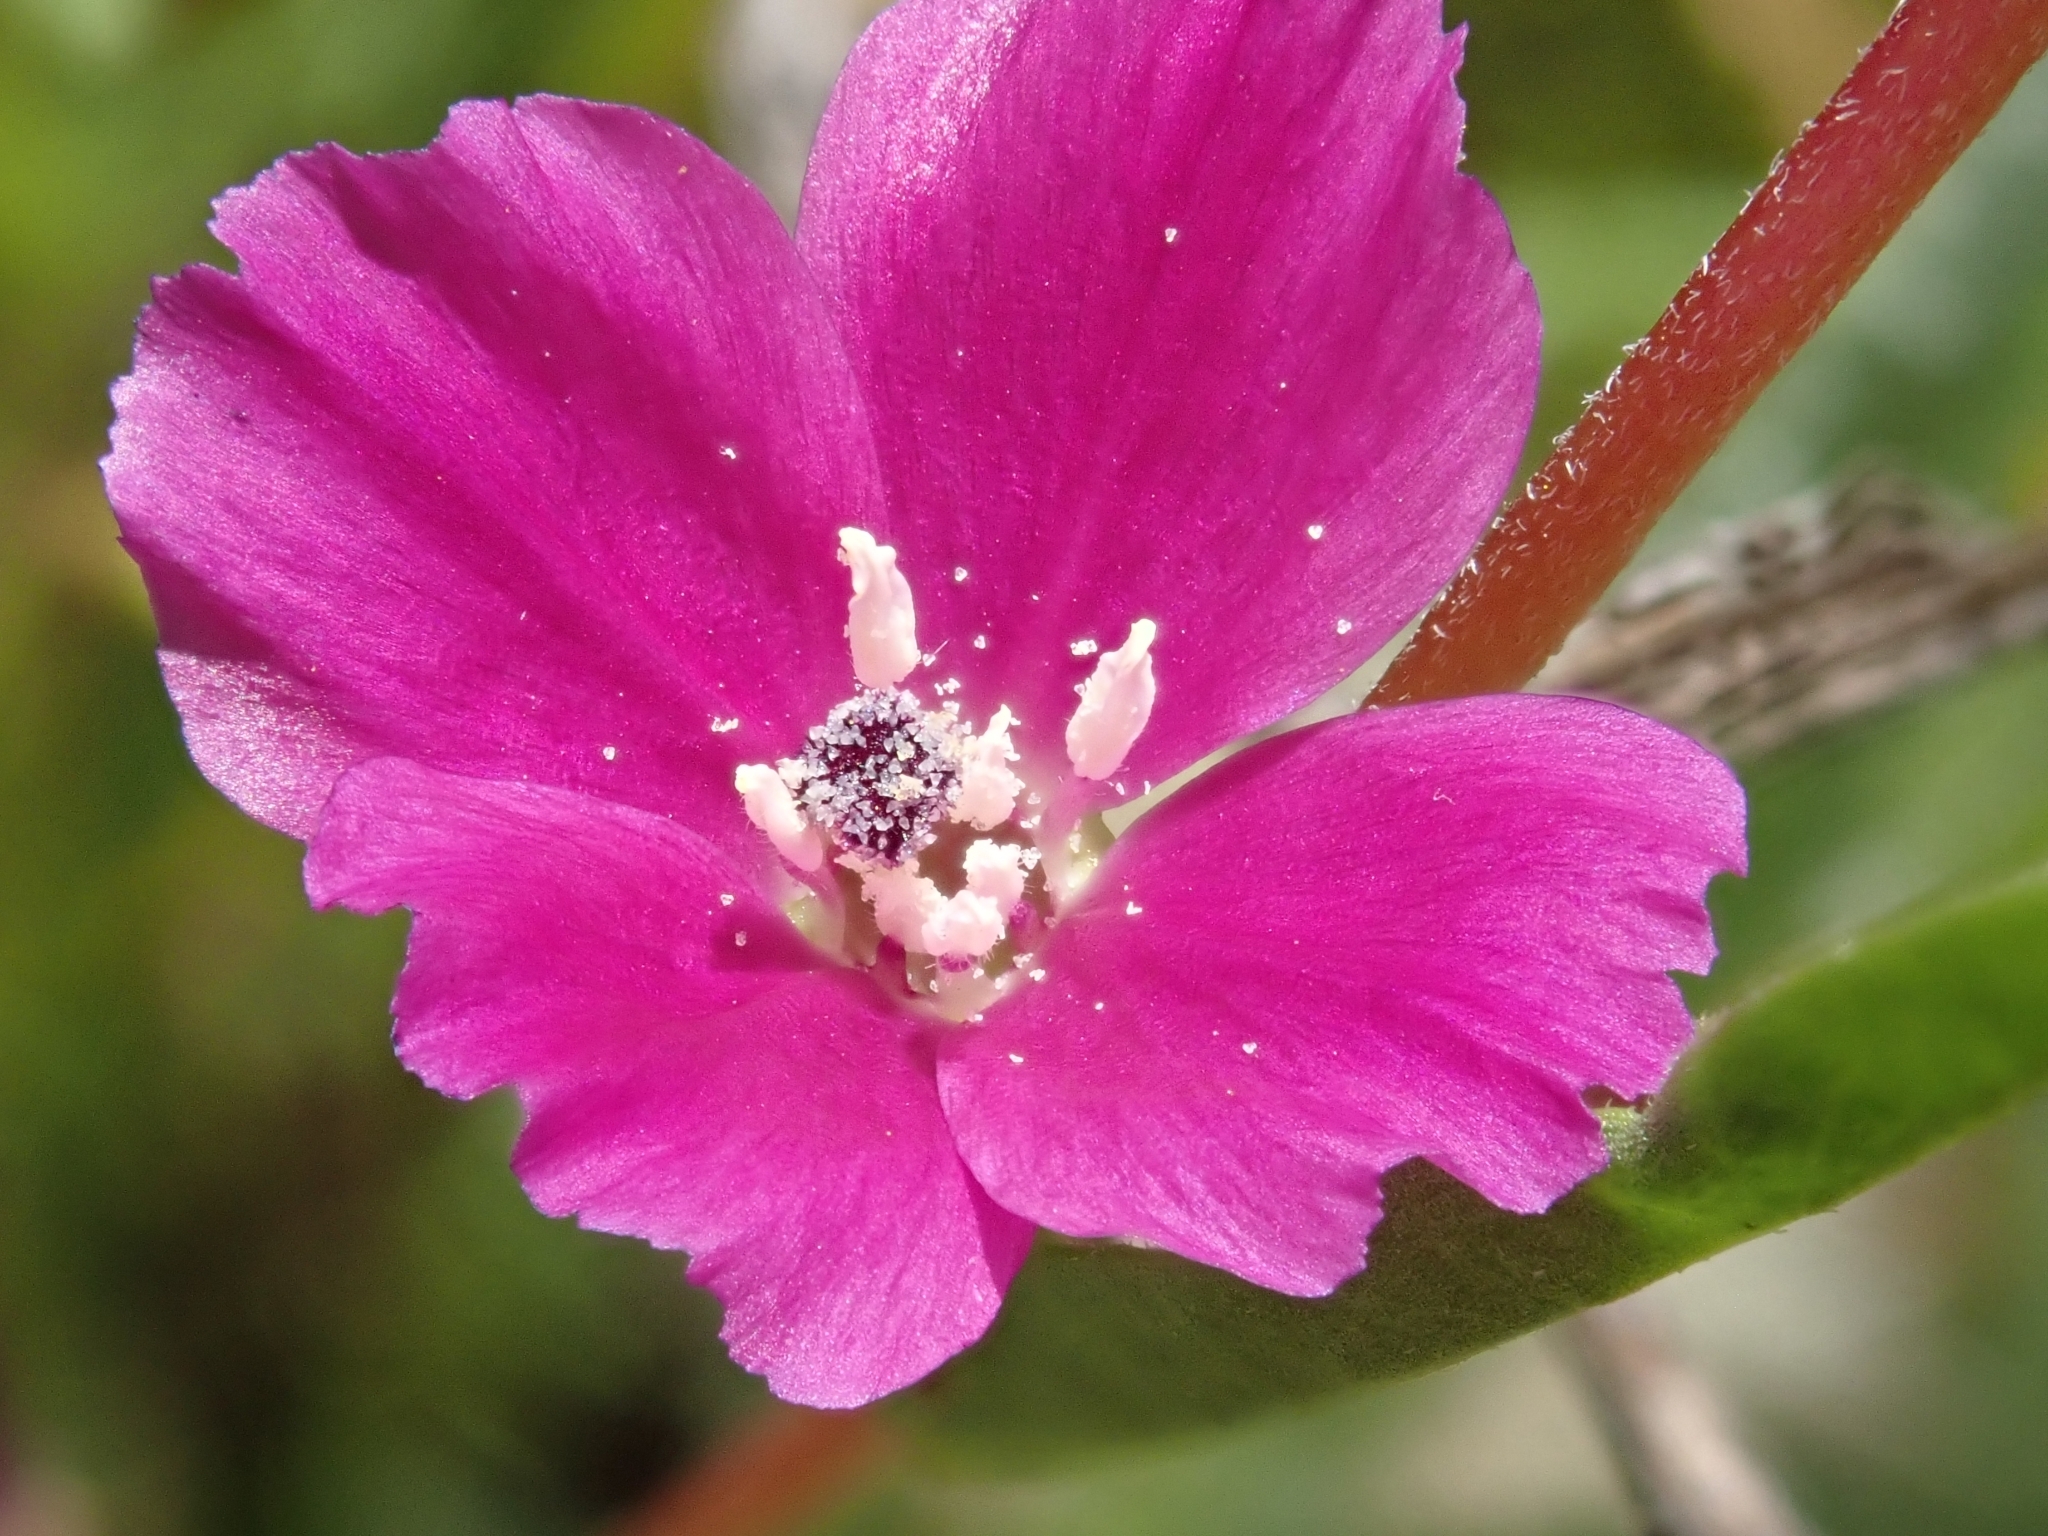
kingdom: Plantae
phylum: Tracheophyta
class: Magnoliopsida
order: Myrtales
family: Onagraceae
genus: Clarkia
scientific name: Clarkia purpurea
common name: Purple clarkia
